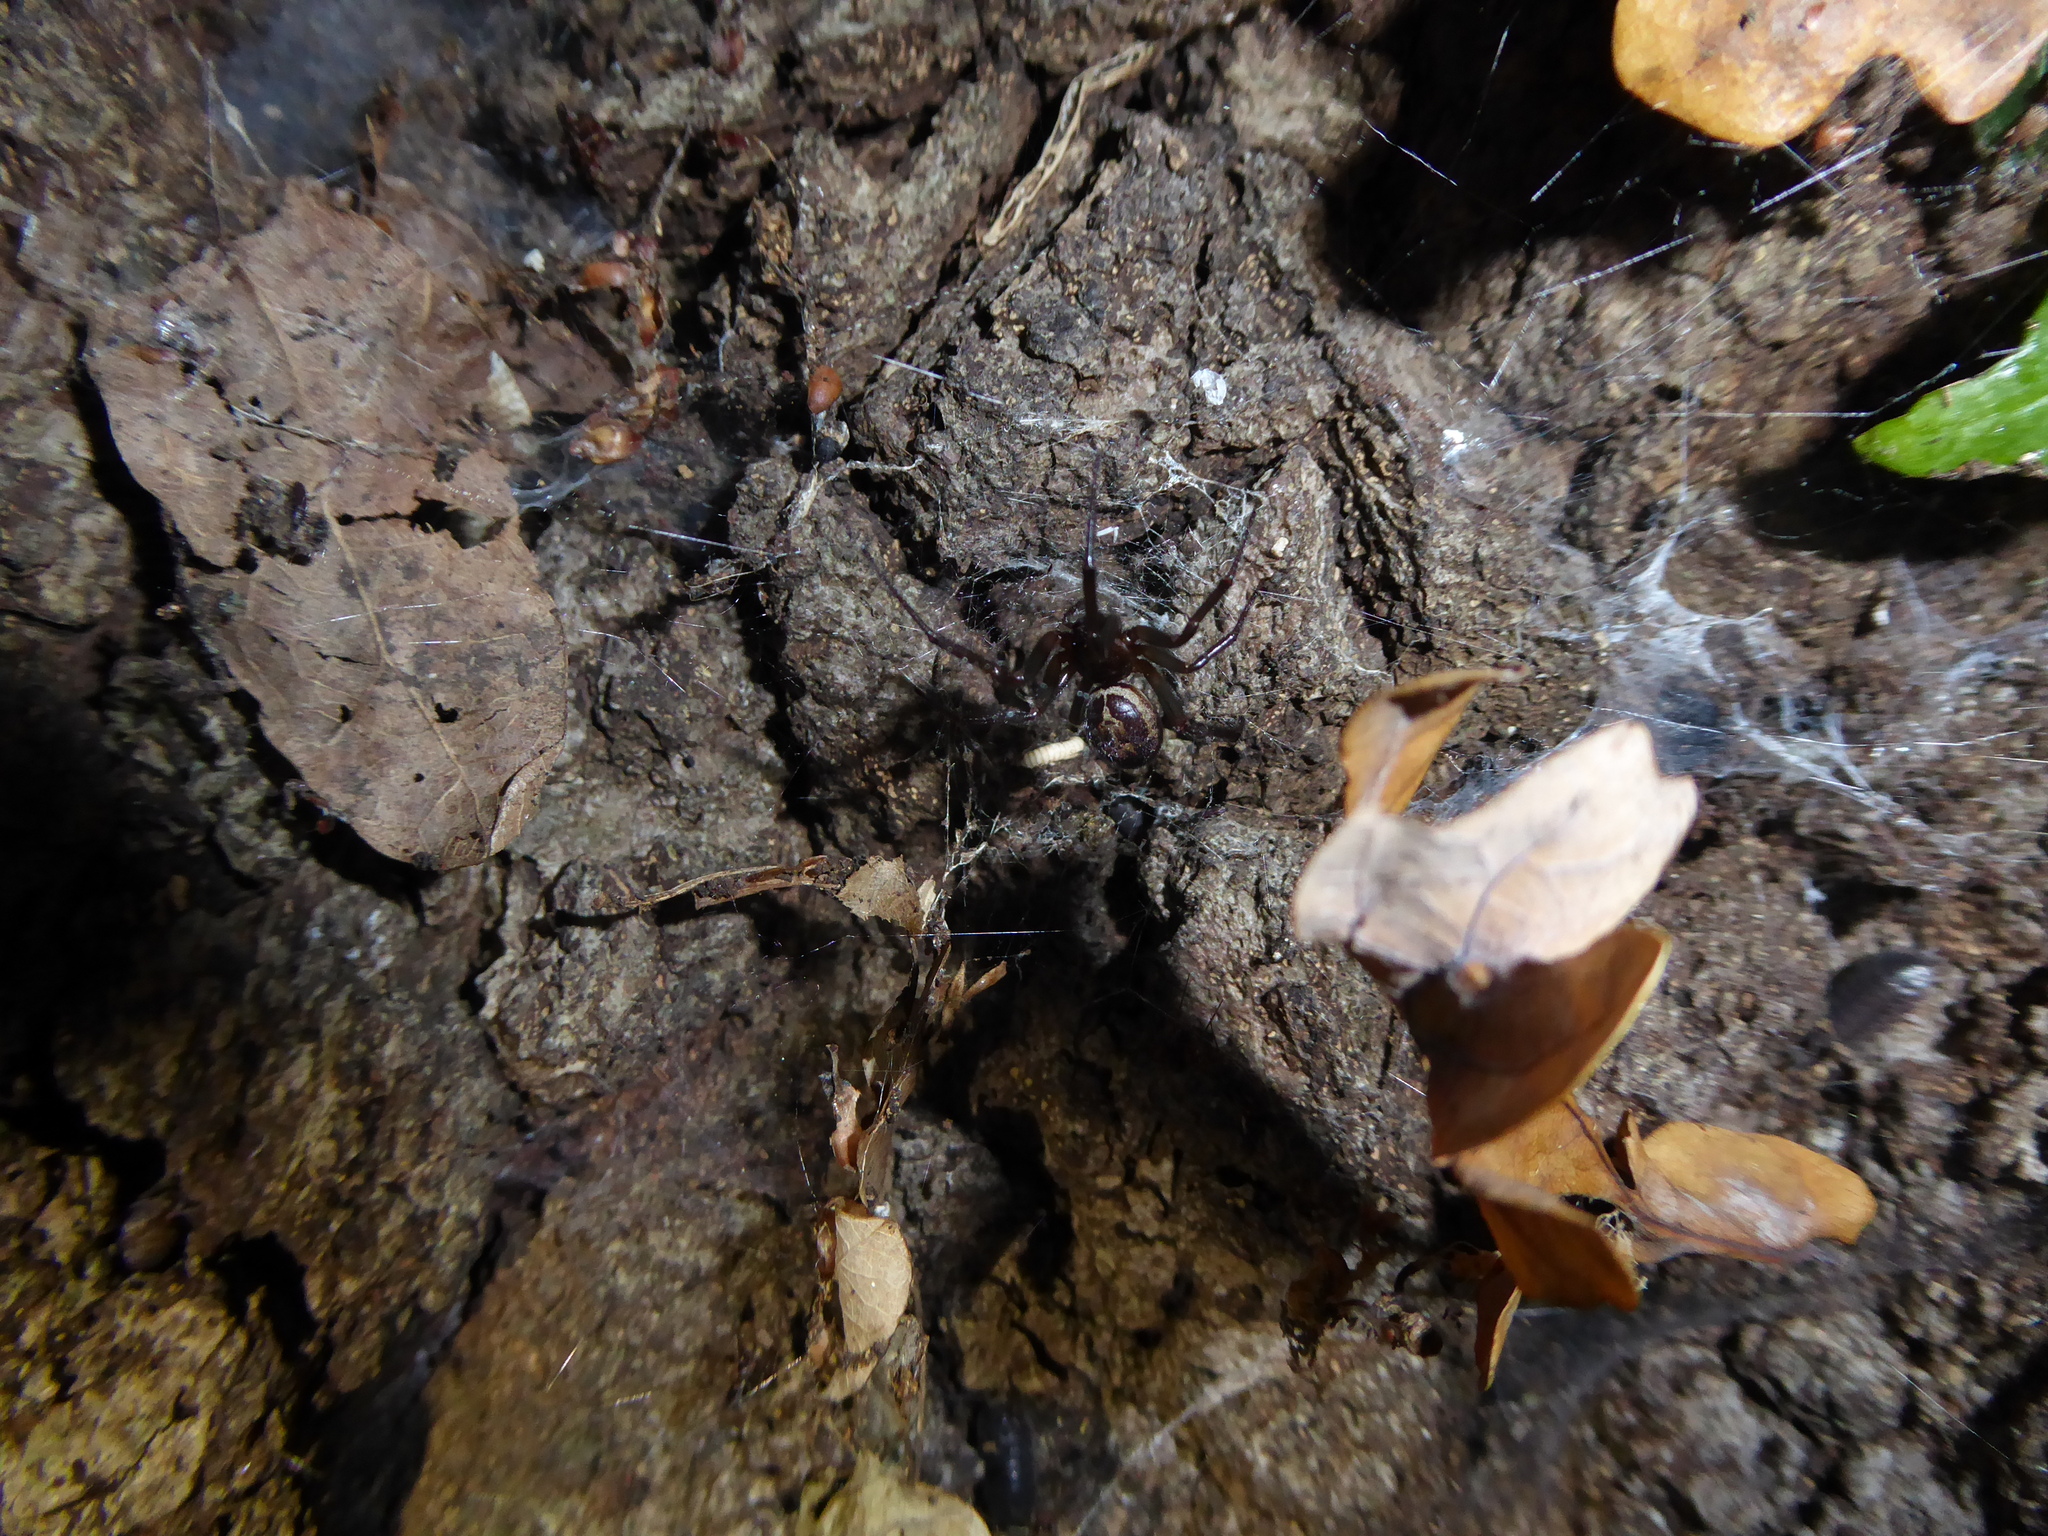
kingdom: Animalia
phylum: Arthropoda
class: Arachnida
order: Araneae
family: Theridiidae
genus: Steatoda
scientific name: Steatoda nobilis
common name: Cobweb weaver
